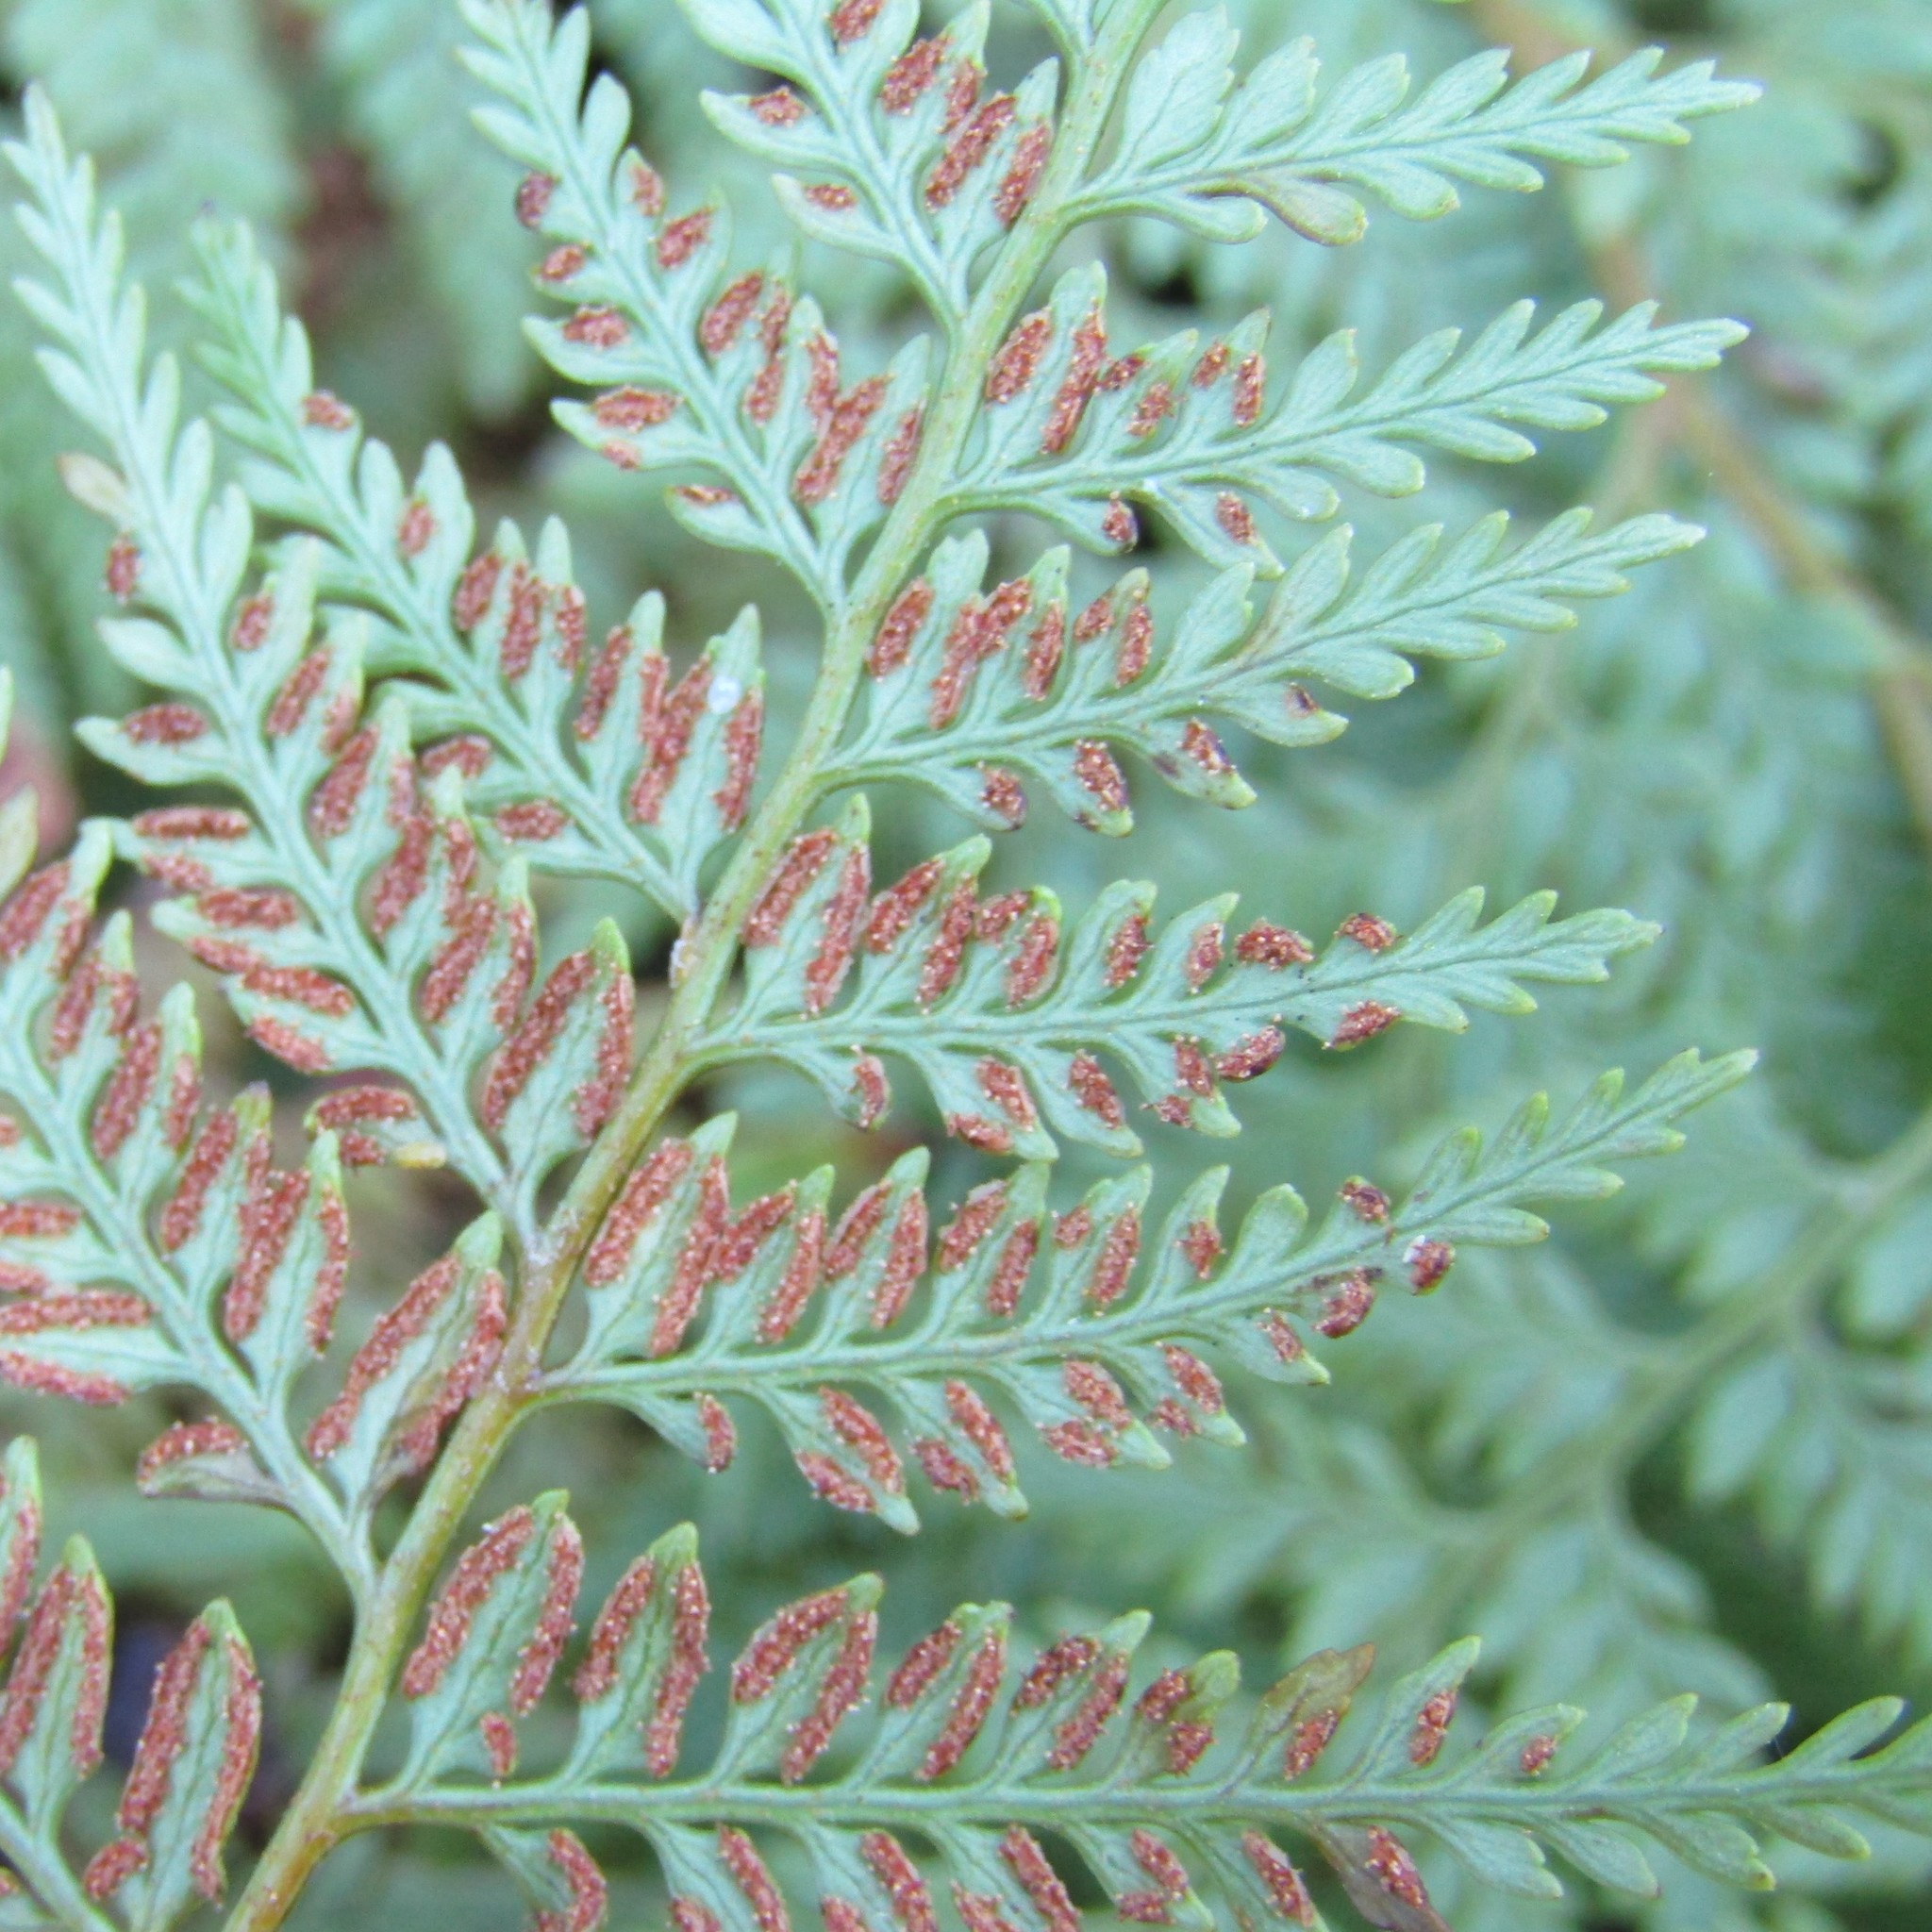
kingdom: Plantae
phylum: Tracheophyta
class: Polypodiopsida
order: Polypodiales
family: Dennstaedtiaceae
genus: Paesia
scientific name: Paesia scaberula
